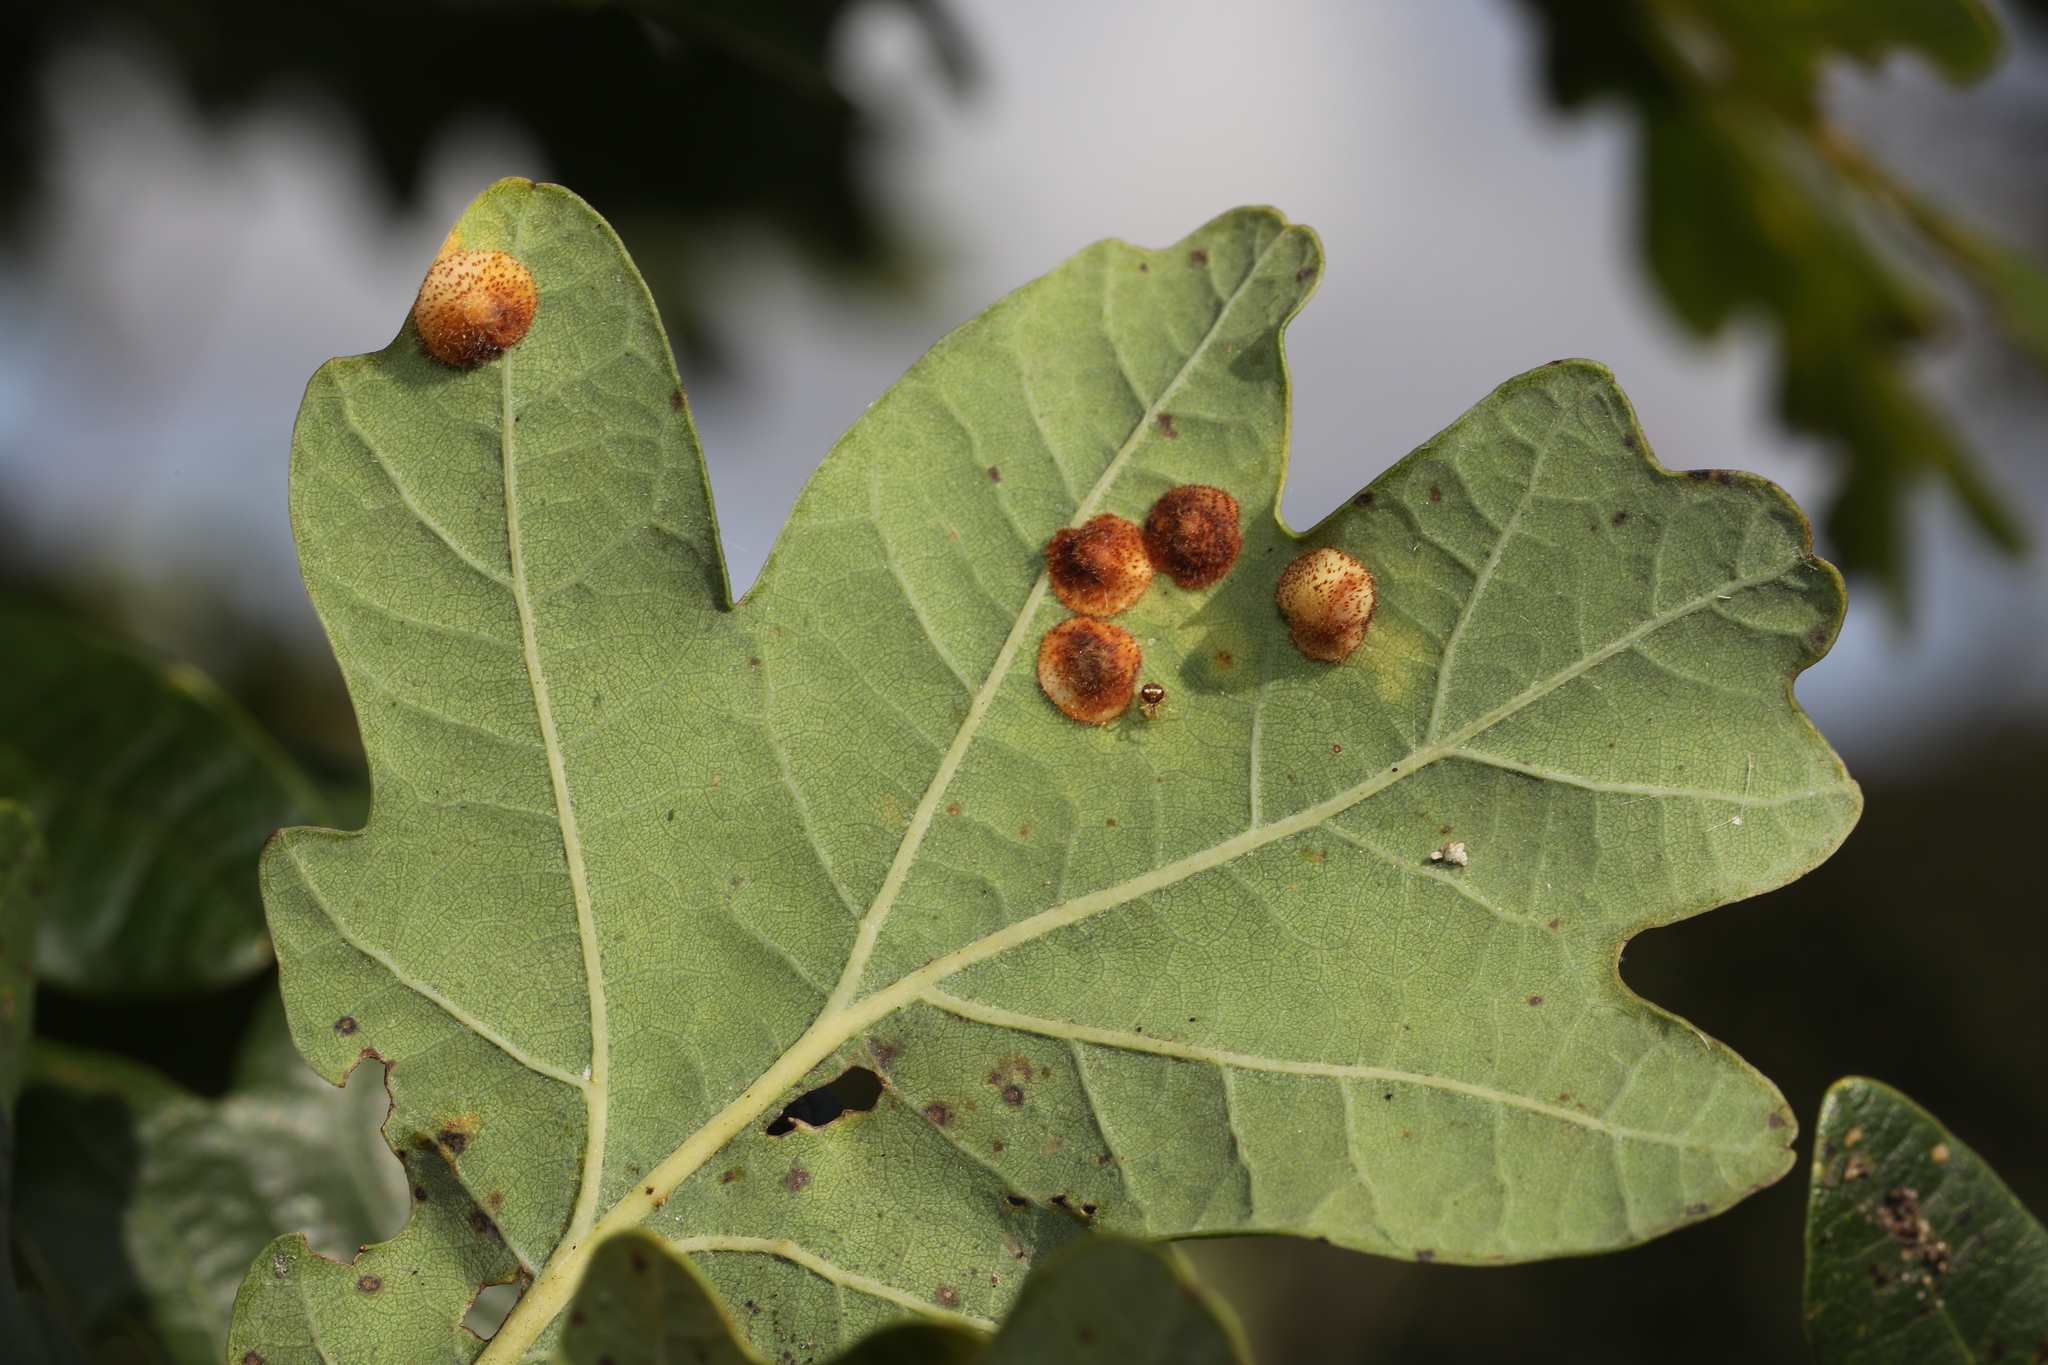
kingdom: Animalia
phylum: Arthropoda
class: Insecta
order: Hymenoptera
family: Cynipidae
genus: Neuroterus
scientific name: Neuroterus quercusbaccarum
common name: Common spangle gall
